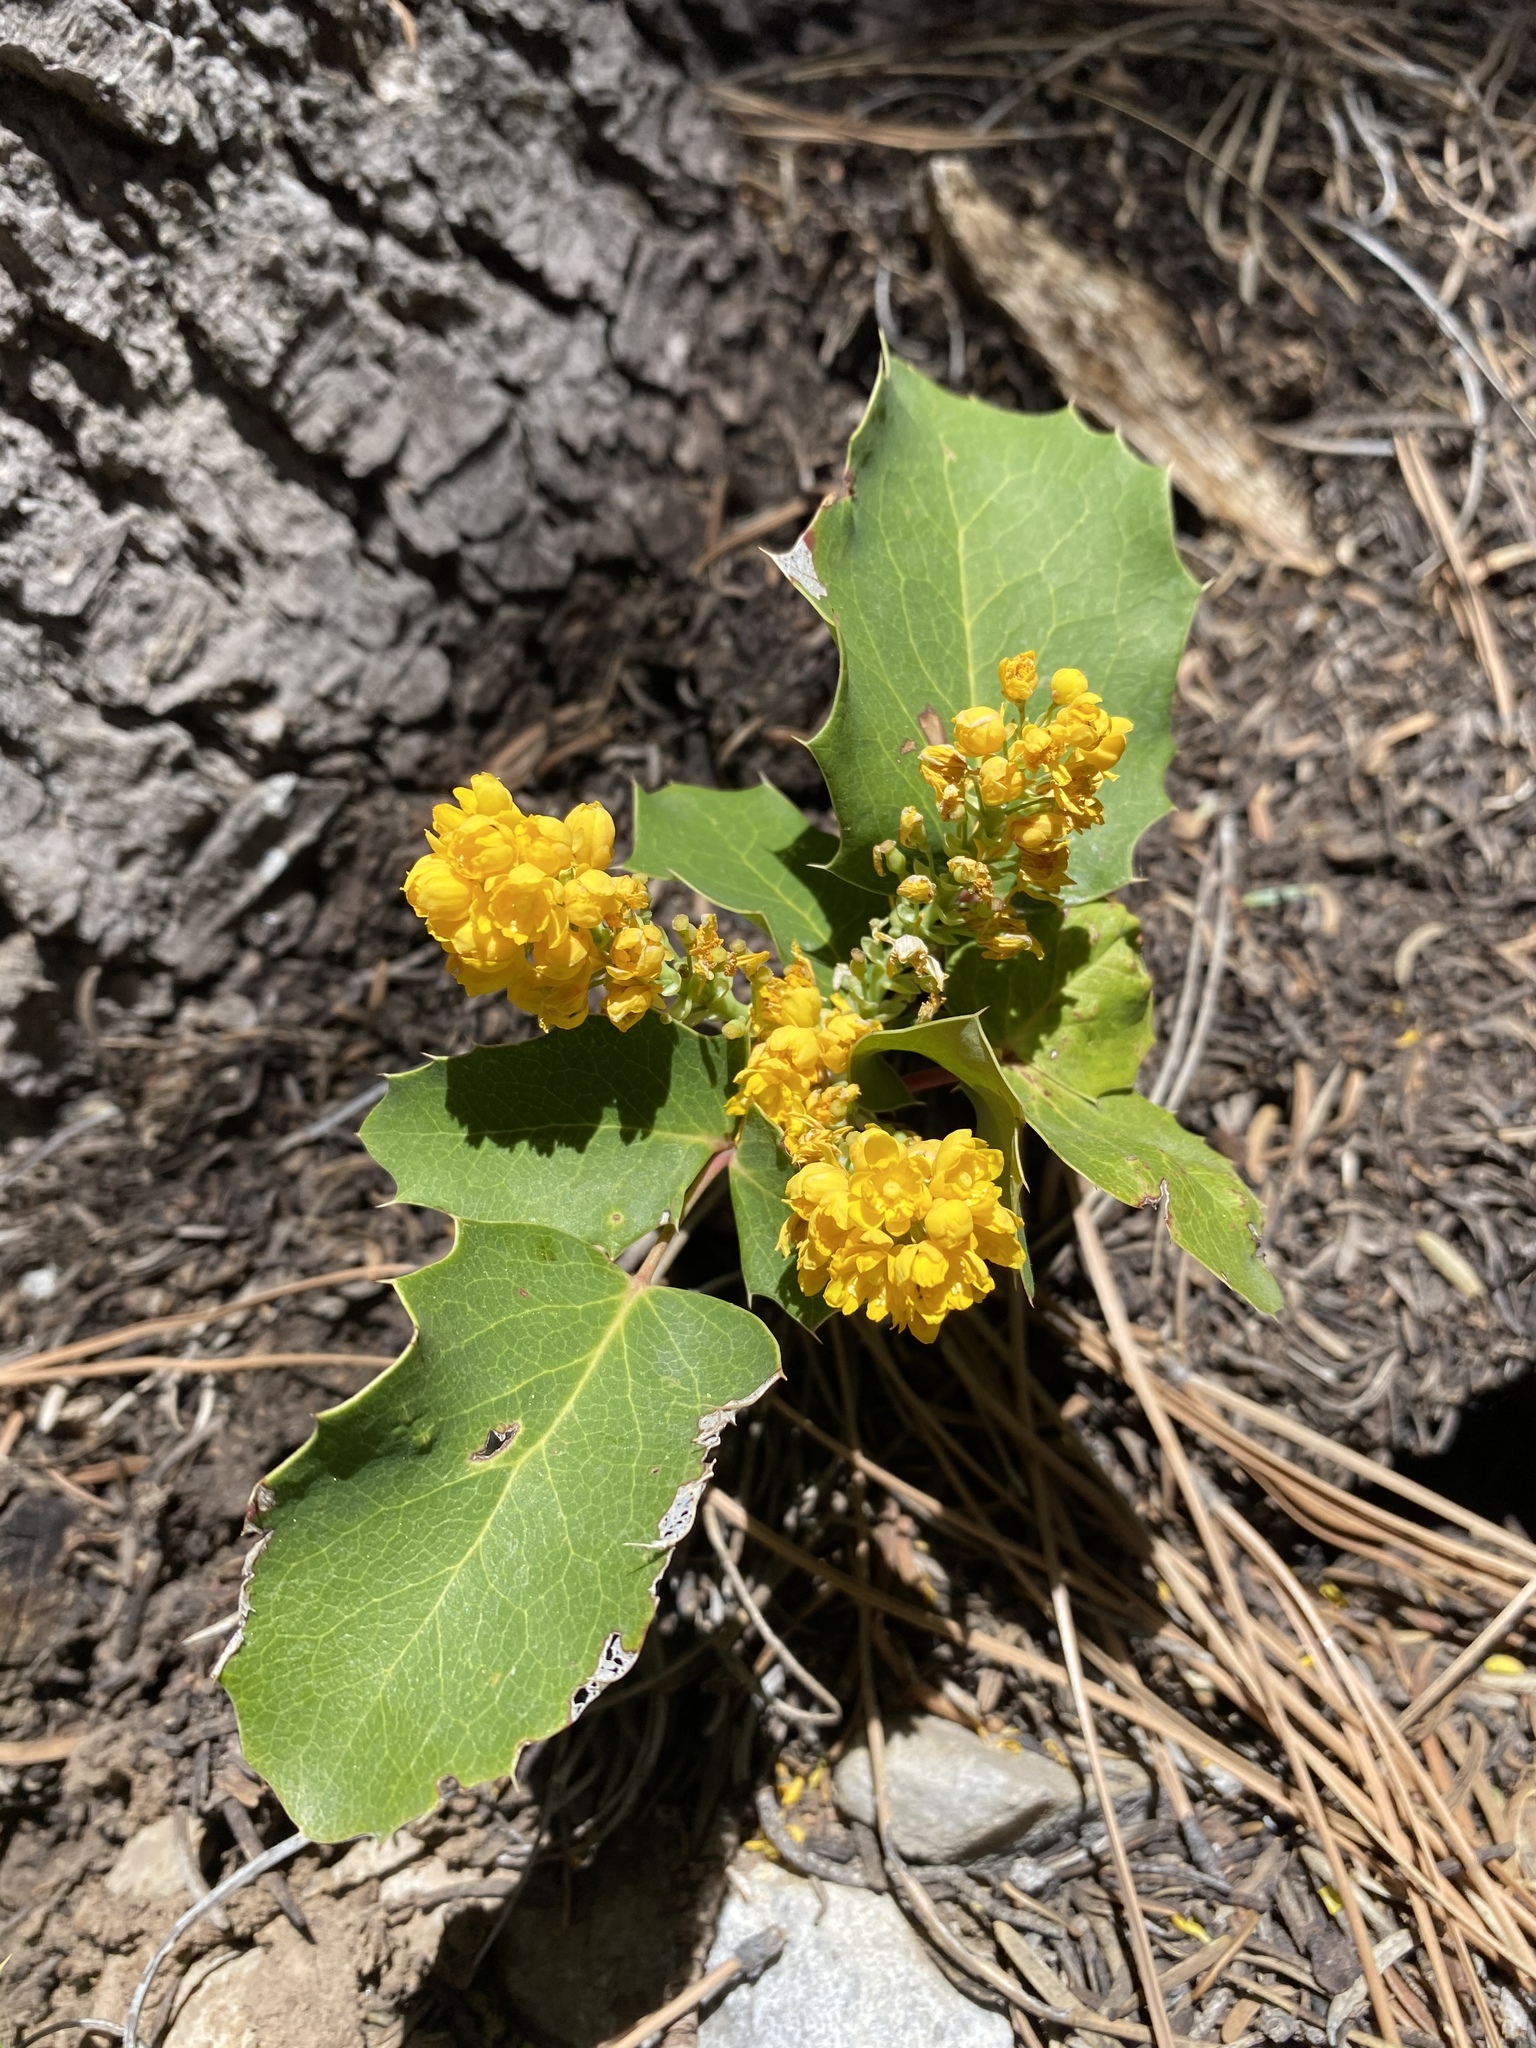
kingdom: Plantae
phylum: Tracheophyta
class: Magnoliopsida
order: Ranunculales
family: Berberidaceae
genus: Mahonia
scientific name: Mahonia repens
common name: Creeping oregon-grape
